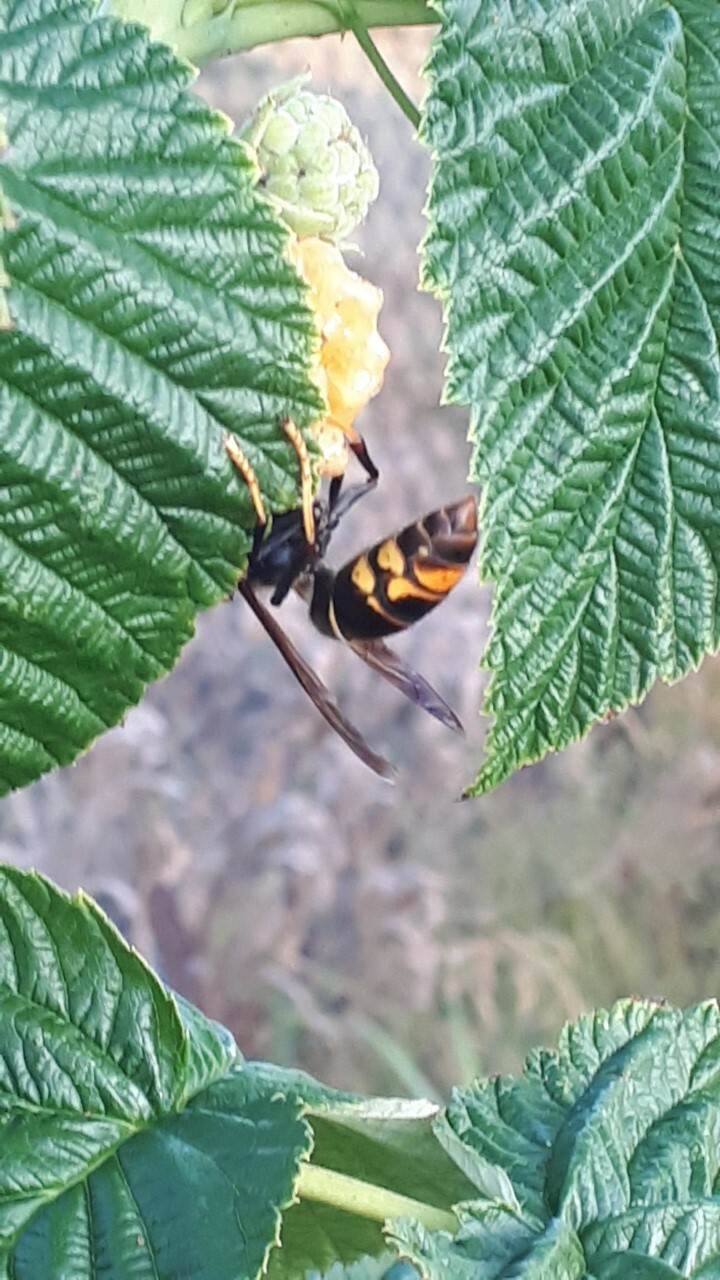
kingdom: Animalia
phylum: Arthropoda
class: Insecta
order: Hymenoptera
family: Vespidae
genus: Vespa
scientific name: Vespa velutina
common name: Asian hornet
